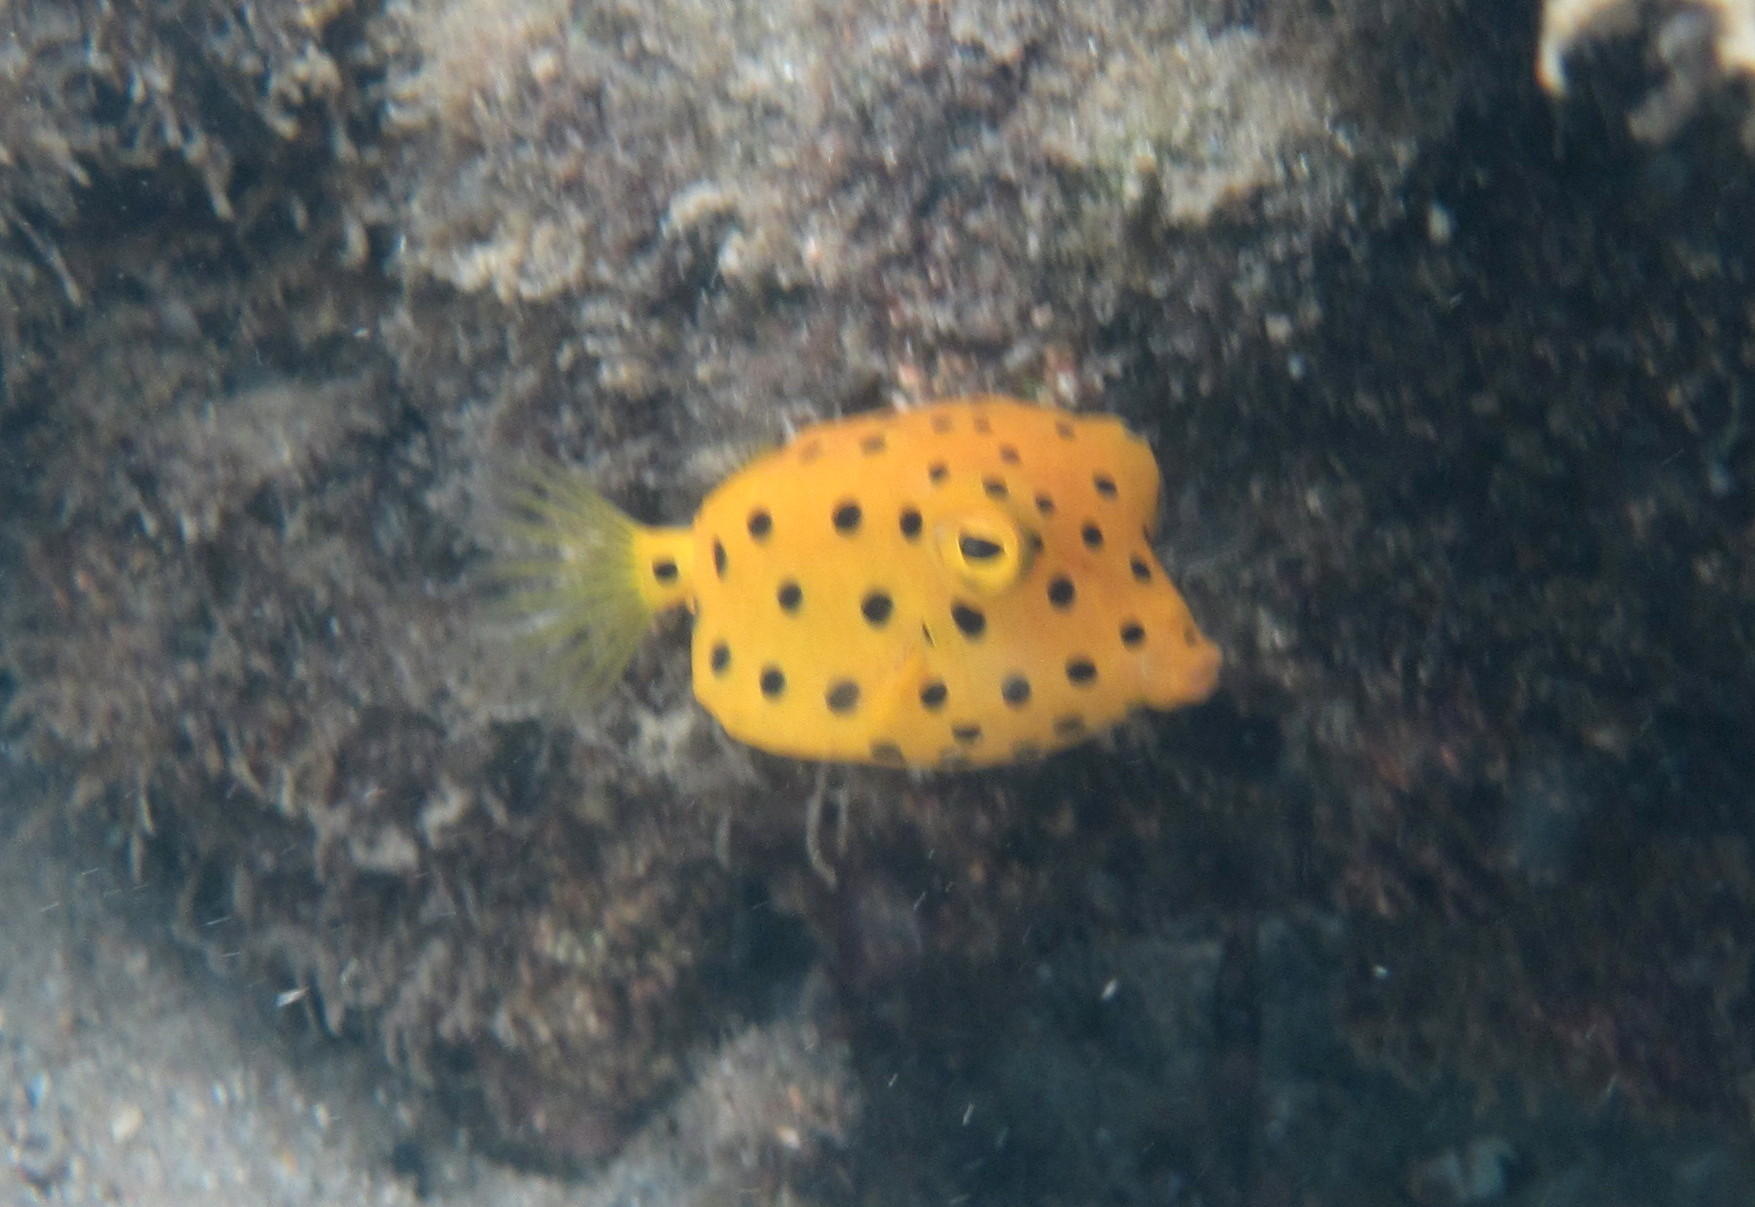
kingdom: Animalia
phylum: Chordata
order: Tetraodontiformes
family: Ostraciidae
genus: Ostracion
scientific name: Ostracion cubicus
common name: Cube trunkfish
